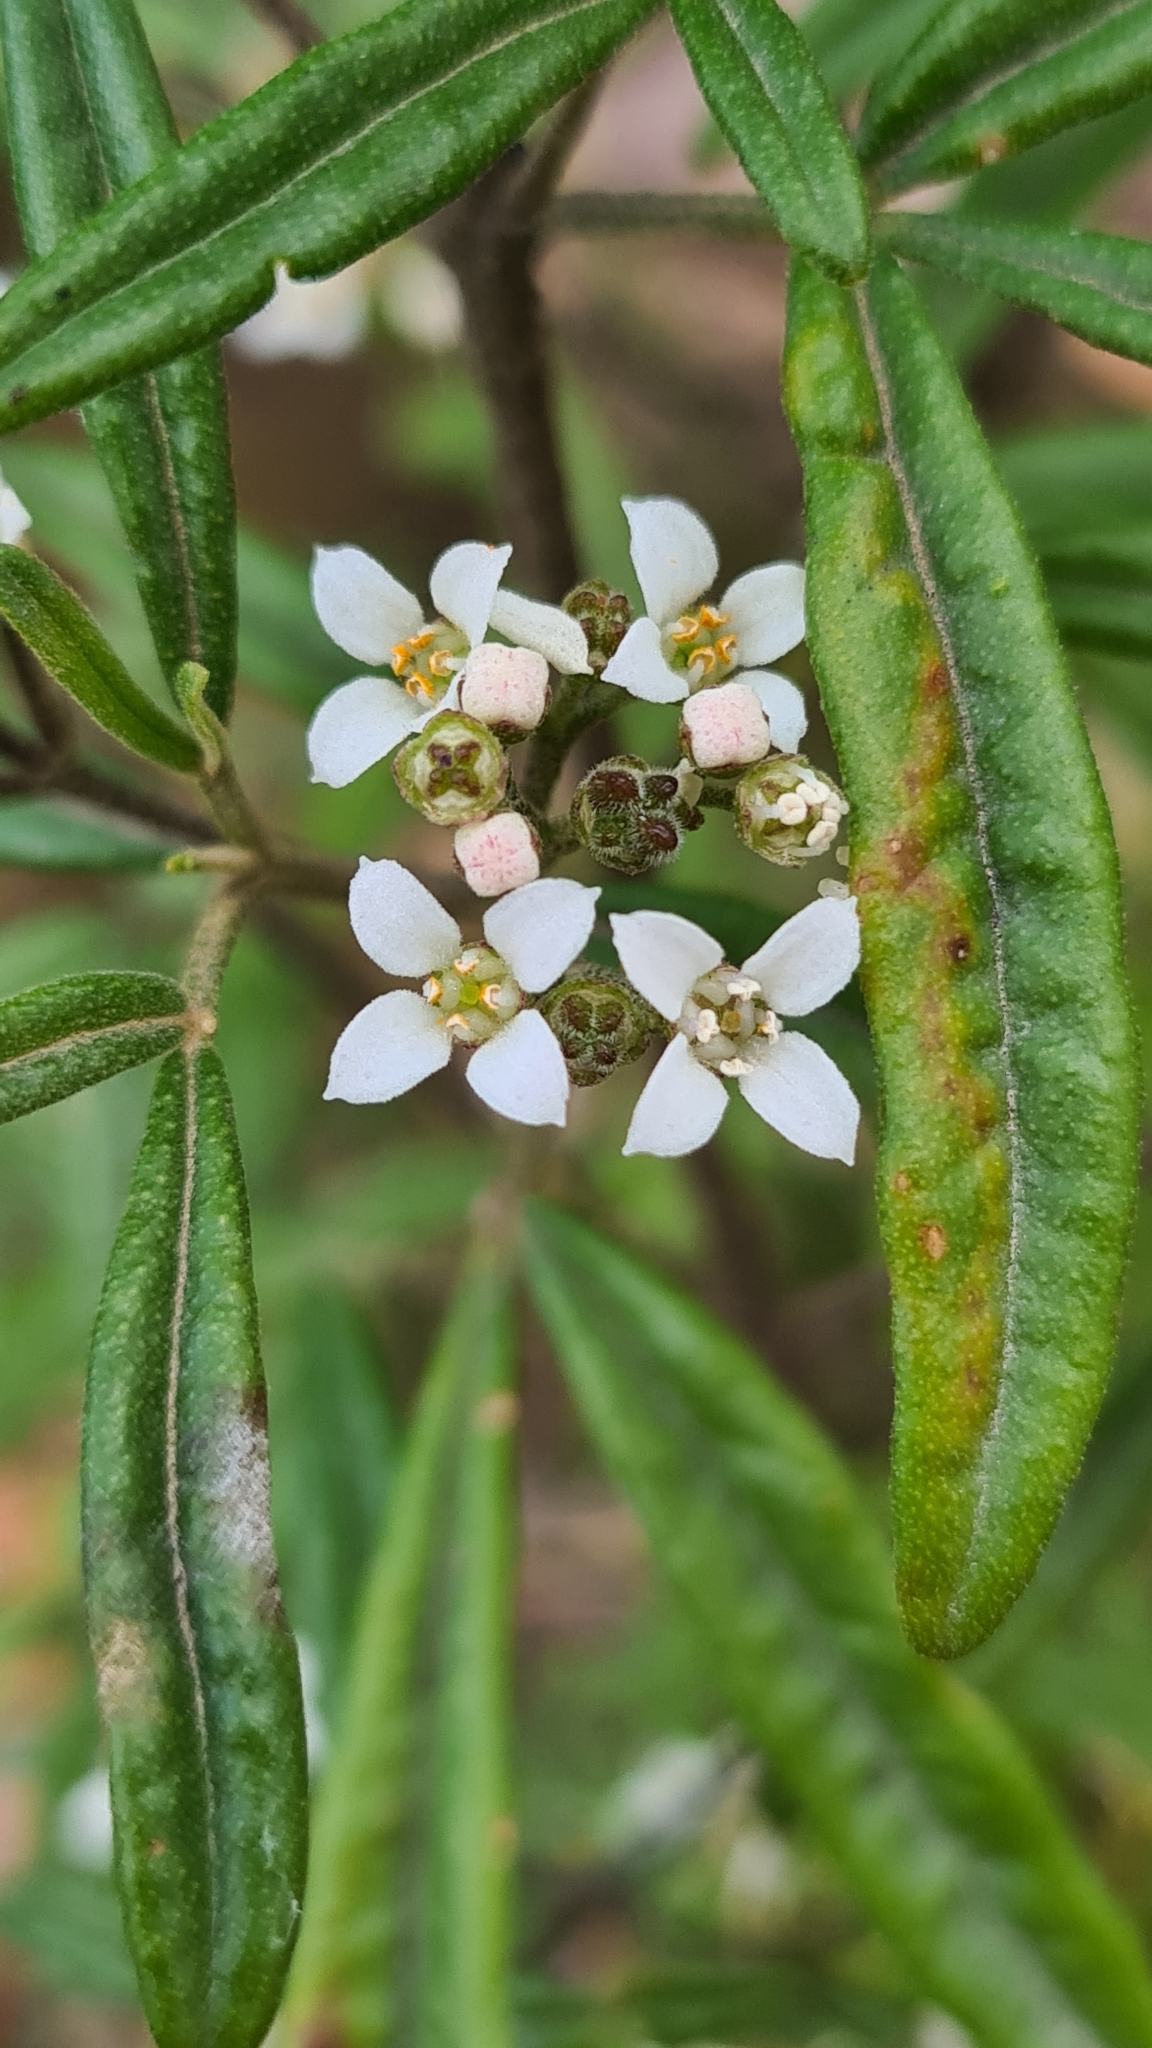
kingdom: Plantae
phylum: Tracheophyta
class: Magnoliopsida
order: Sapindales
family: Rutaceae
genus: Zieria
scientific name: Zieria smithii
